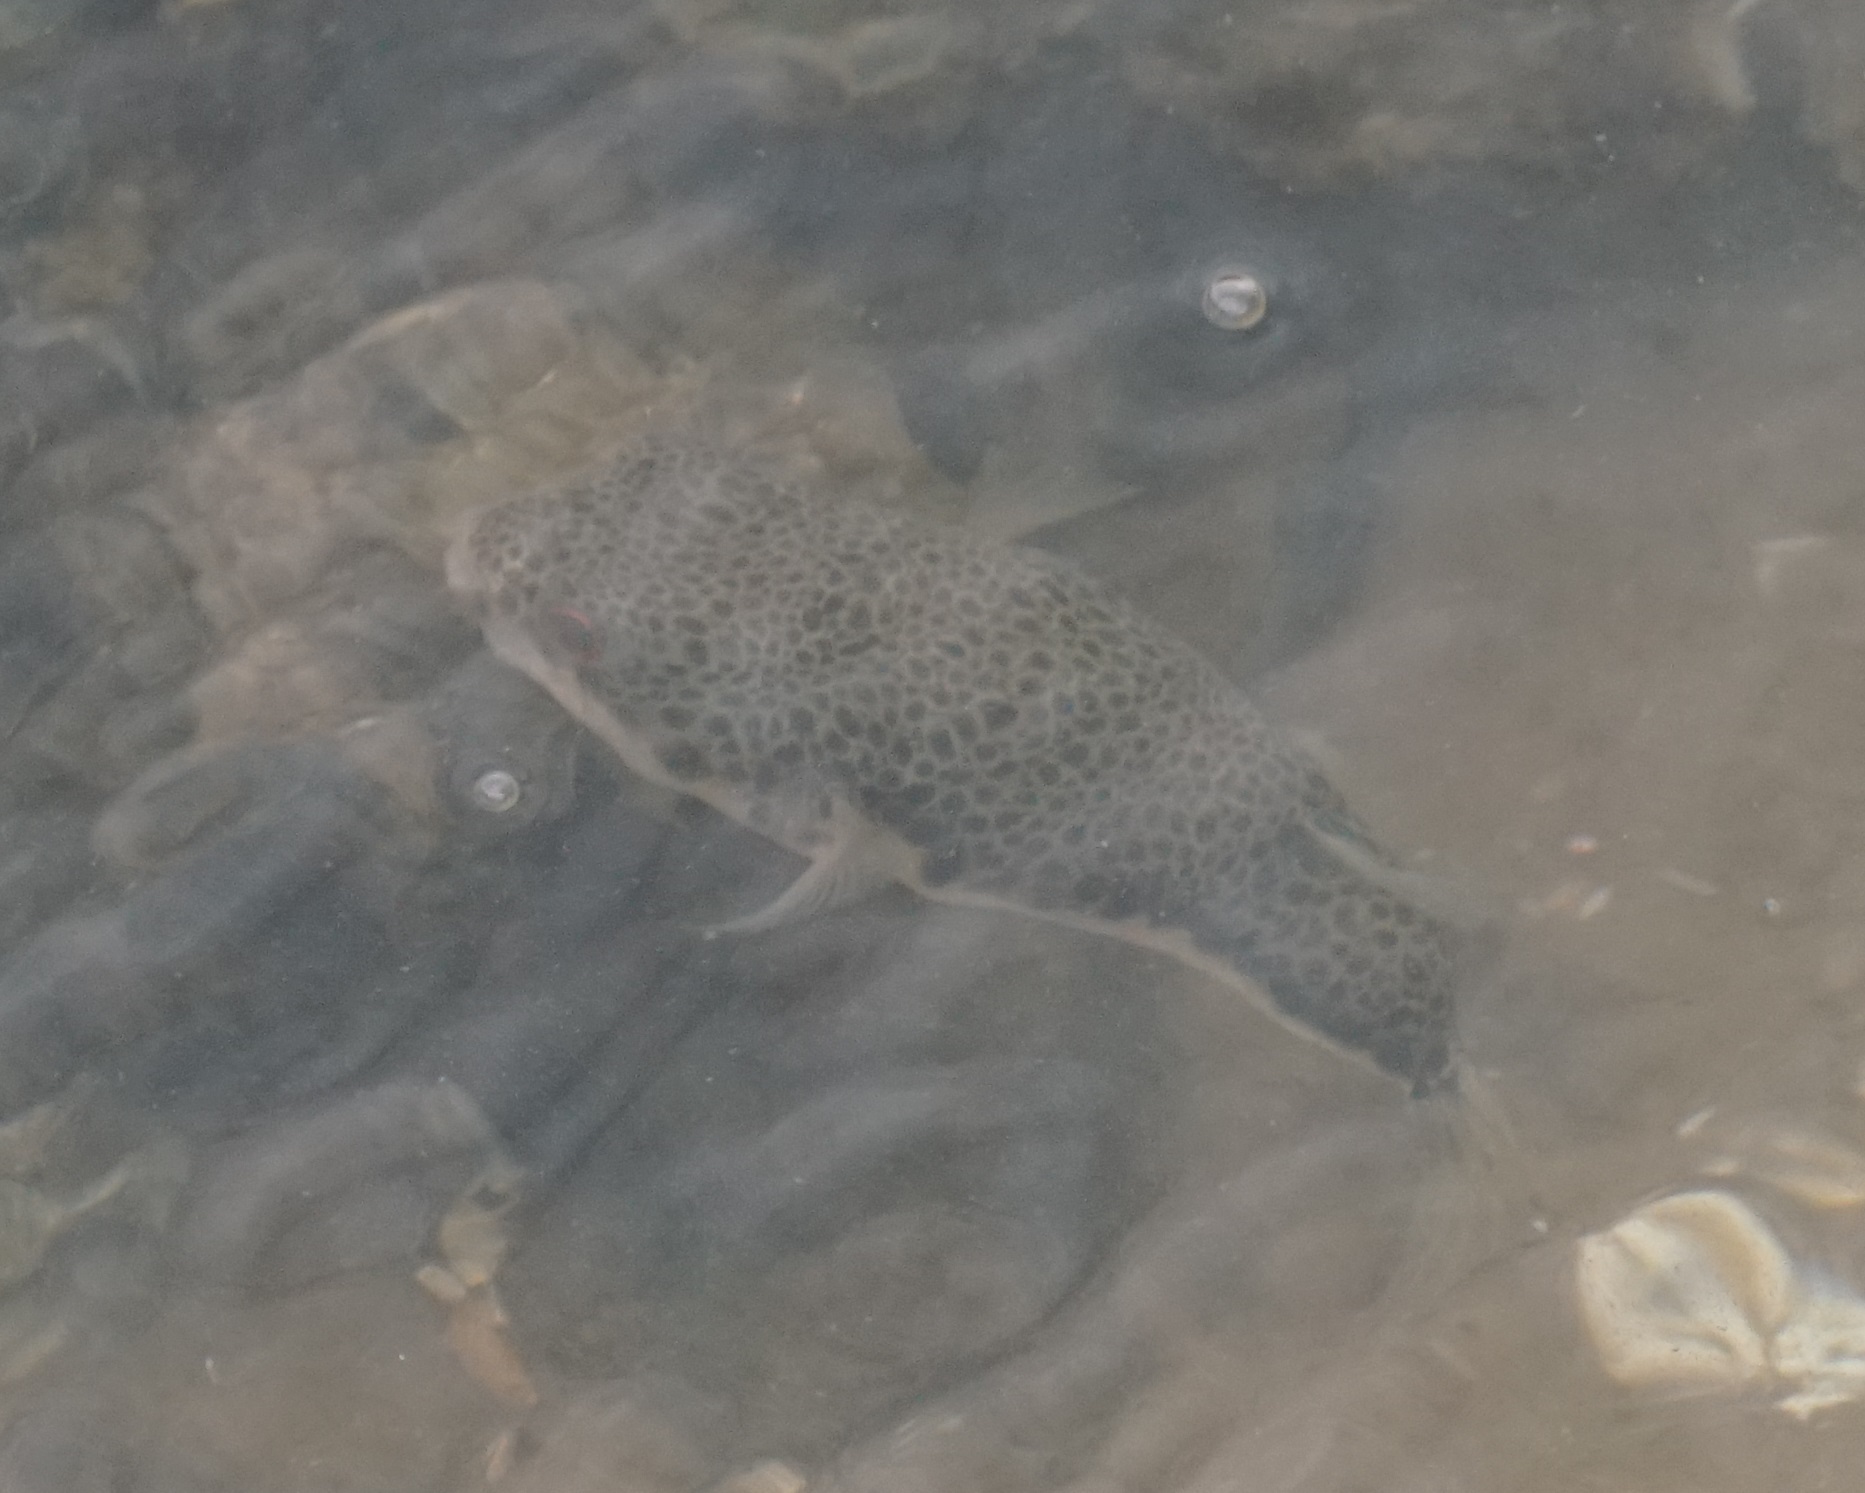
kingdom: Animalia
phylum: Chordata
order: Tetraodontiformes
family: Tetraodontidae
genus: Tetractenos
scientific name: Tetractenos hamiltoni
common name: Common toadfish
